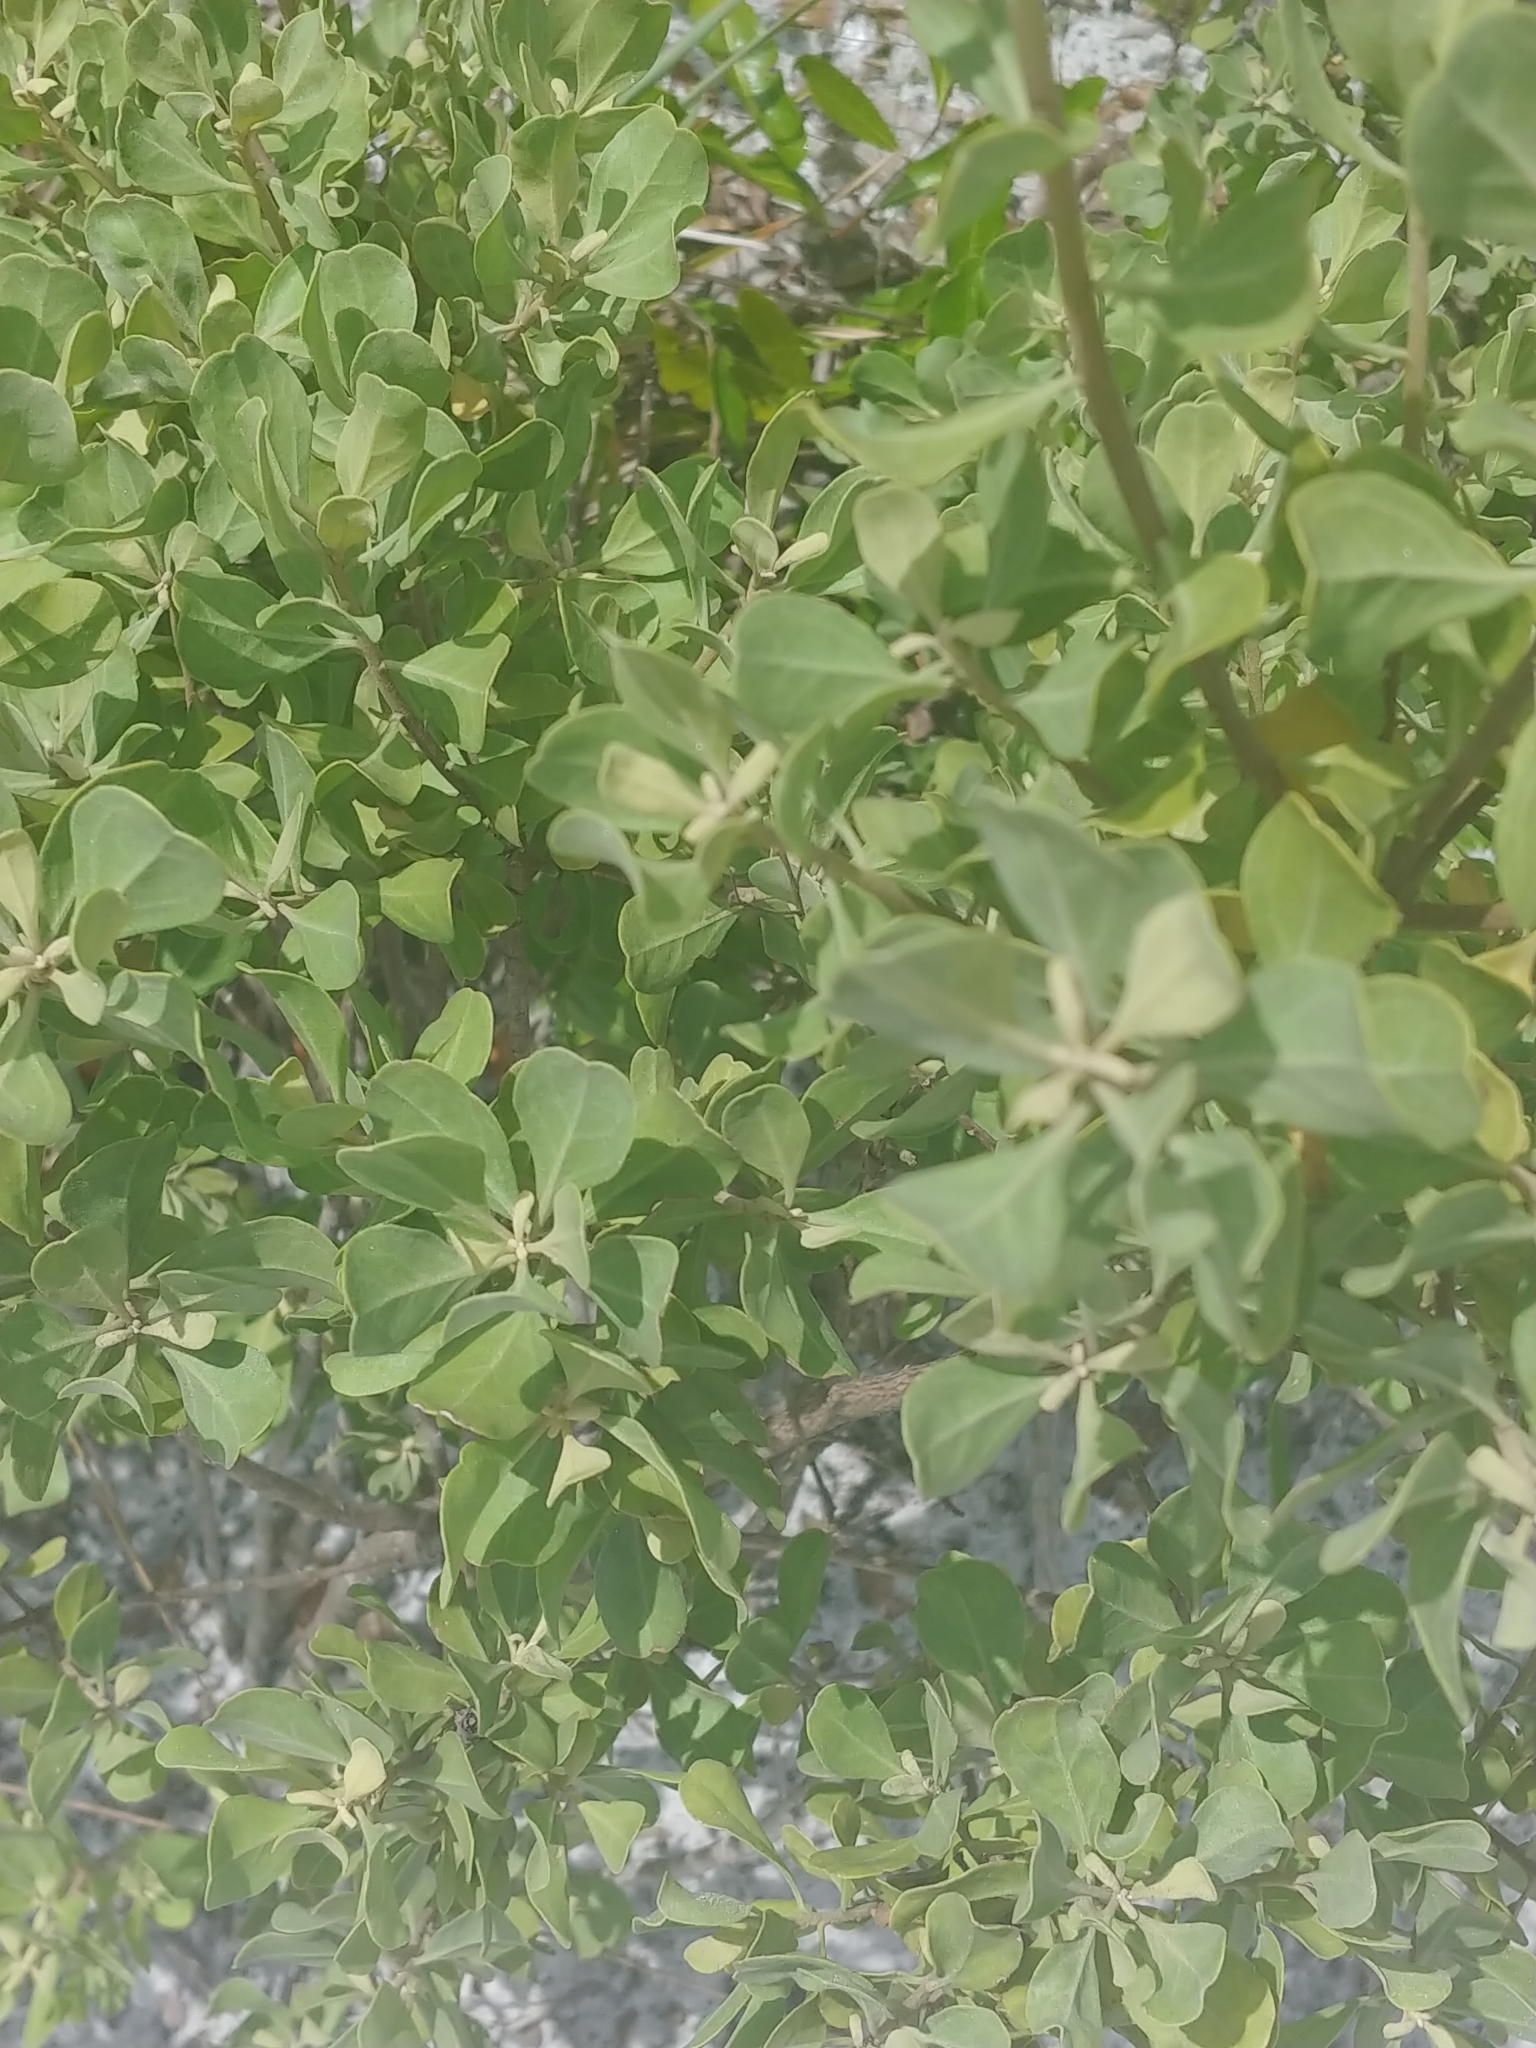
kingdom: Plantae
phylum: Tracheophyta
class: Magnoliopsida
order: Asterales
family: Asteraceae
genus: Garberia
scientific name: Garberia heterophylla
